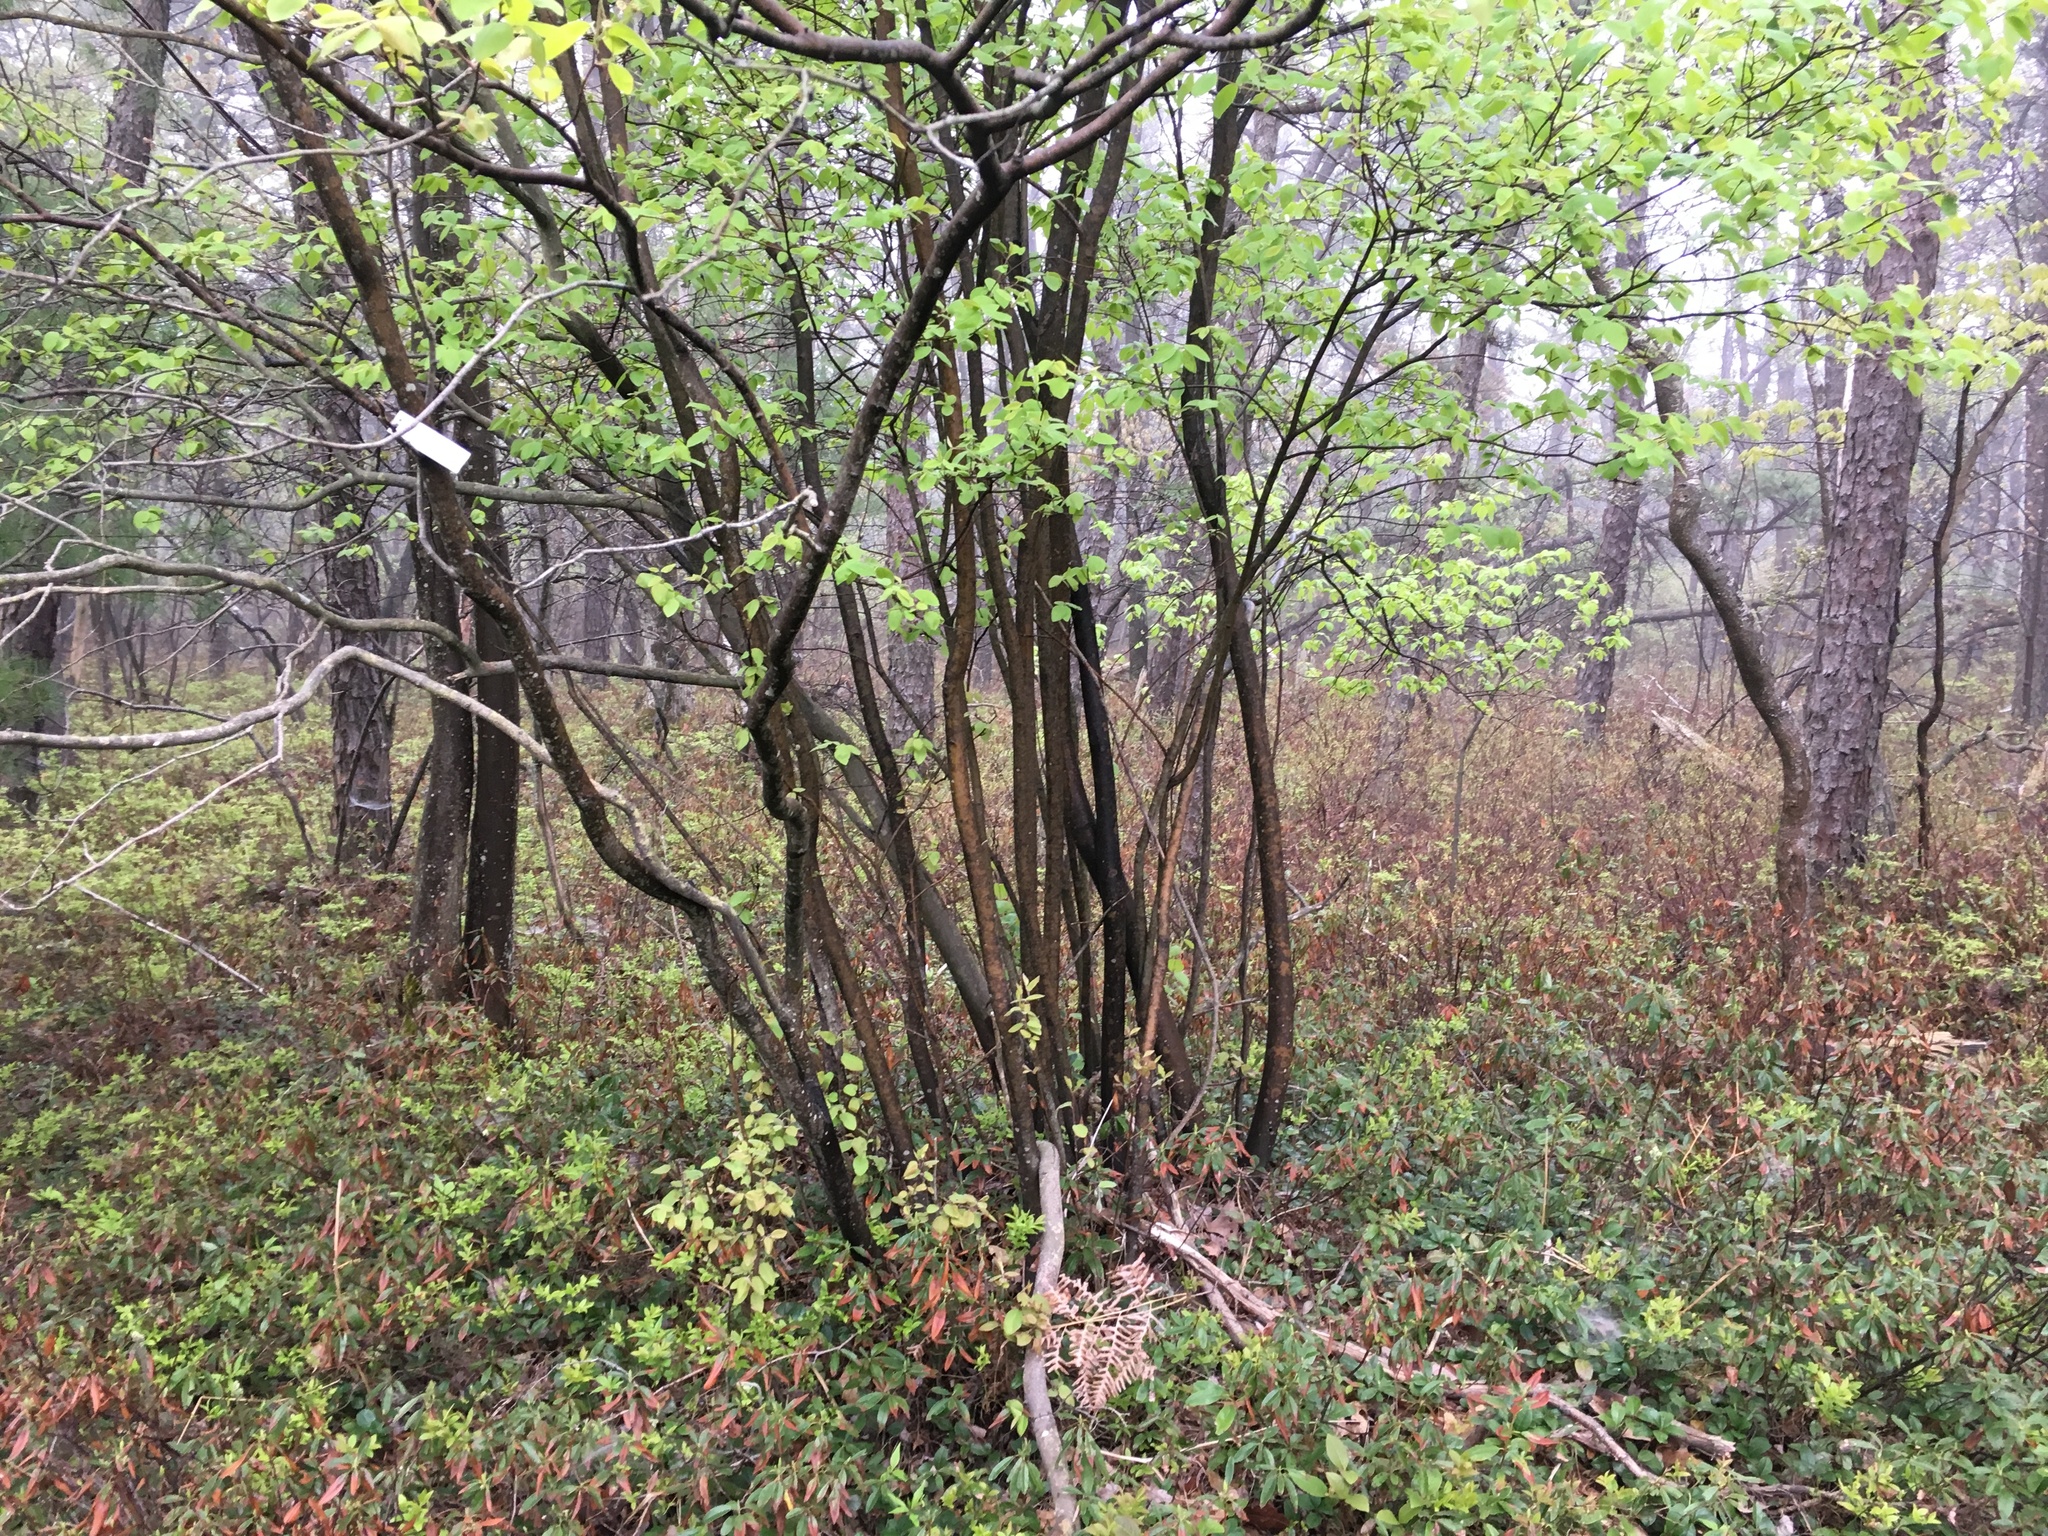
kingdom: Plantae
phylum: Tracheophyta
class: Magnoliopsida
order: Rosales
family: Rosaceae
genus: Amelanchier
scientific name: Amelanchier bartramiana
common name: Mountain serviceberry
